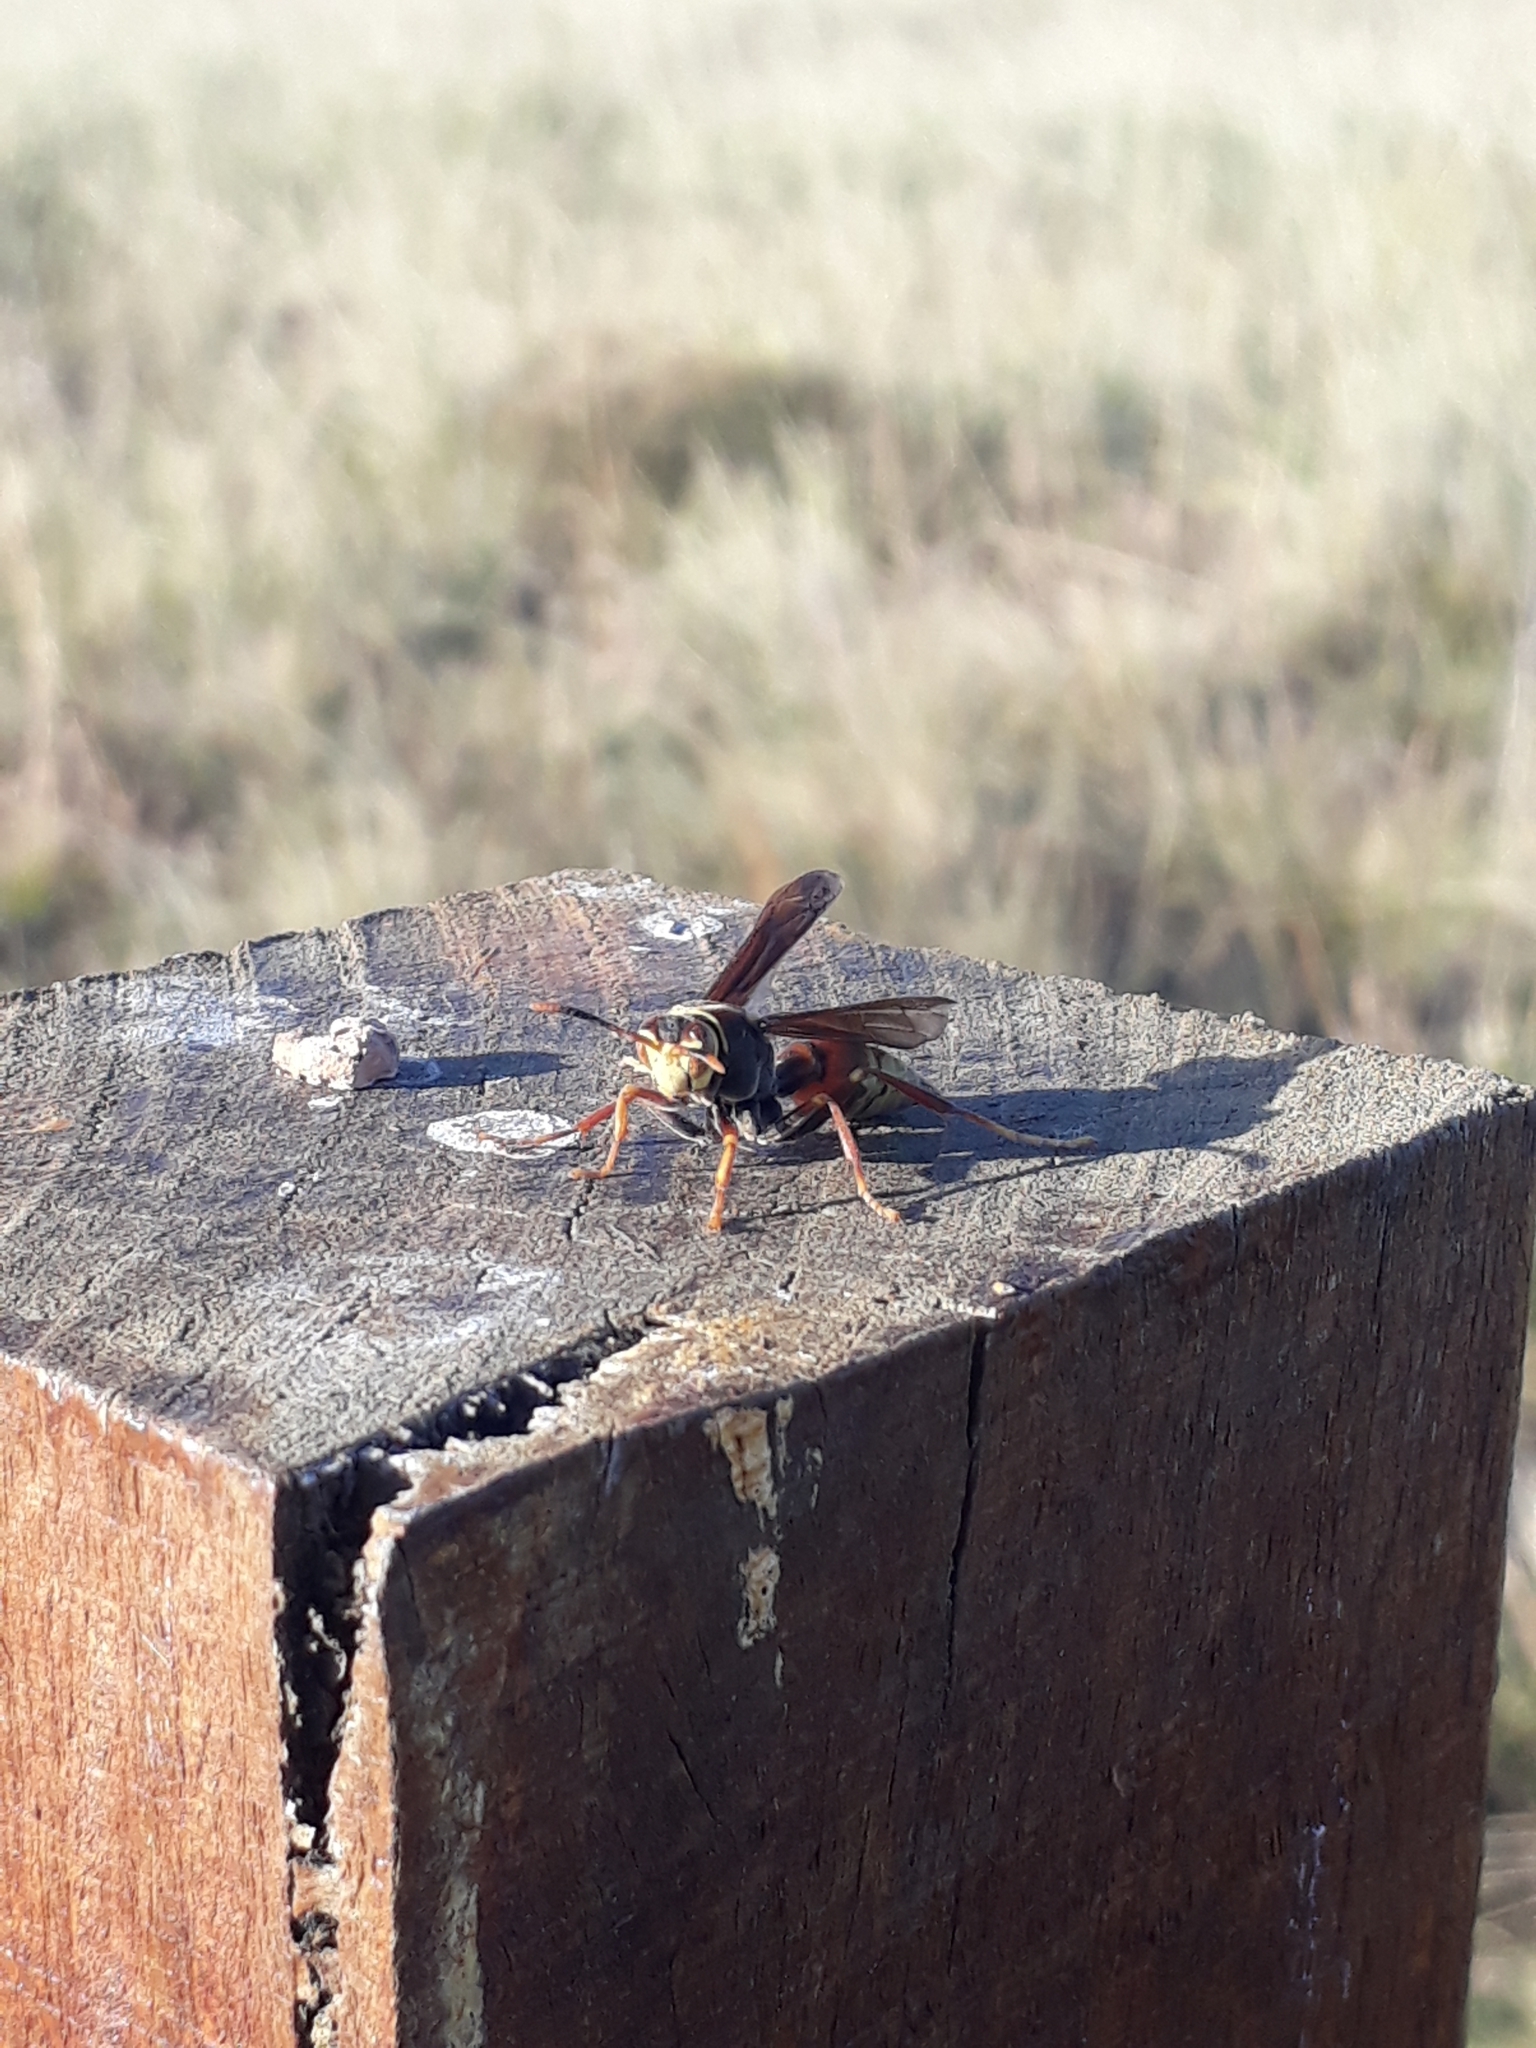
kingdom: Animalia
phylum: Arthropoda
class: Insecta
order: Hymenoptera
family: Eumenidae
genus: Polistes
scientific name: Polistes buyssoni
